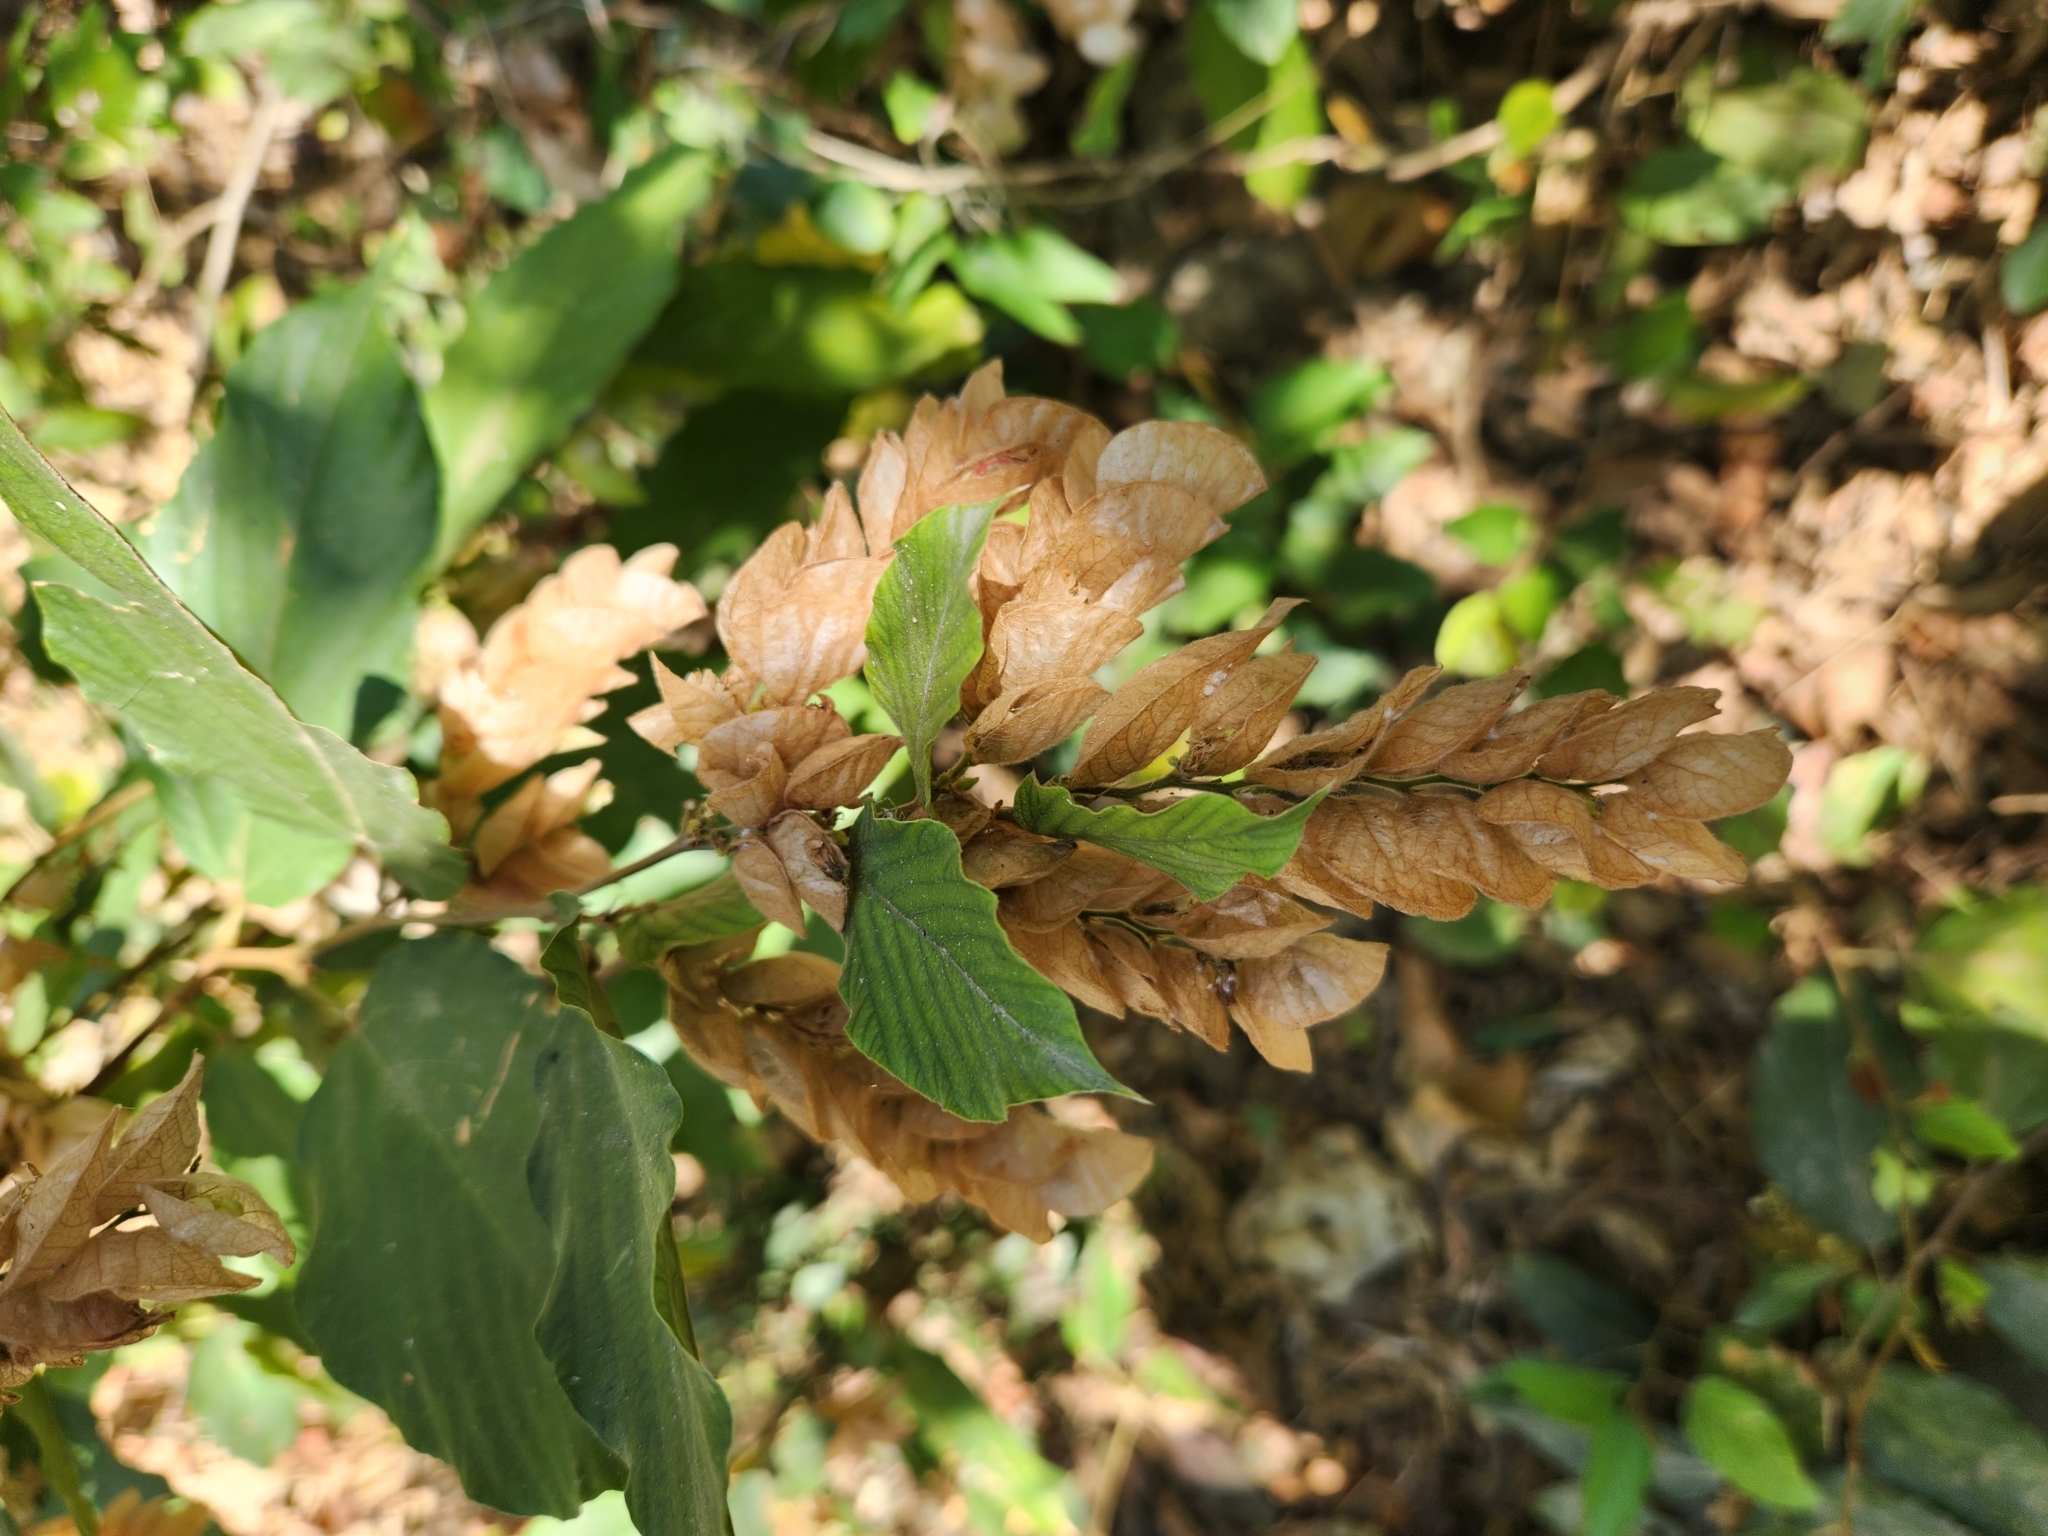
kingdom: Plantae
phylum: Tracheophyta
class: Magnoliopsida
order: Fabales
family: Fabaceae
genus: Flemingia
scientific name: Flemingia strobilifera
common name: Wild hops
